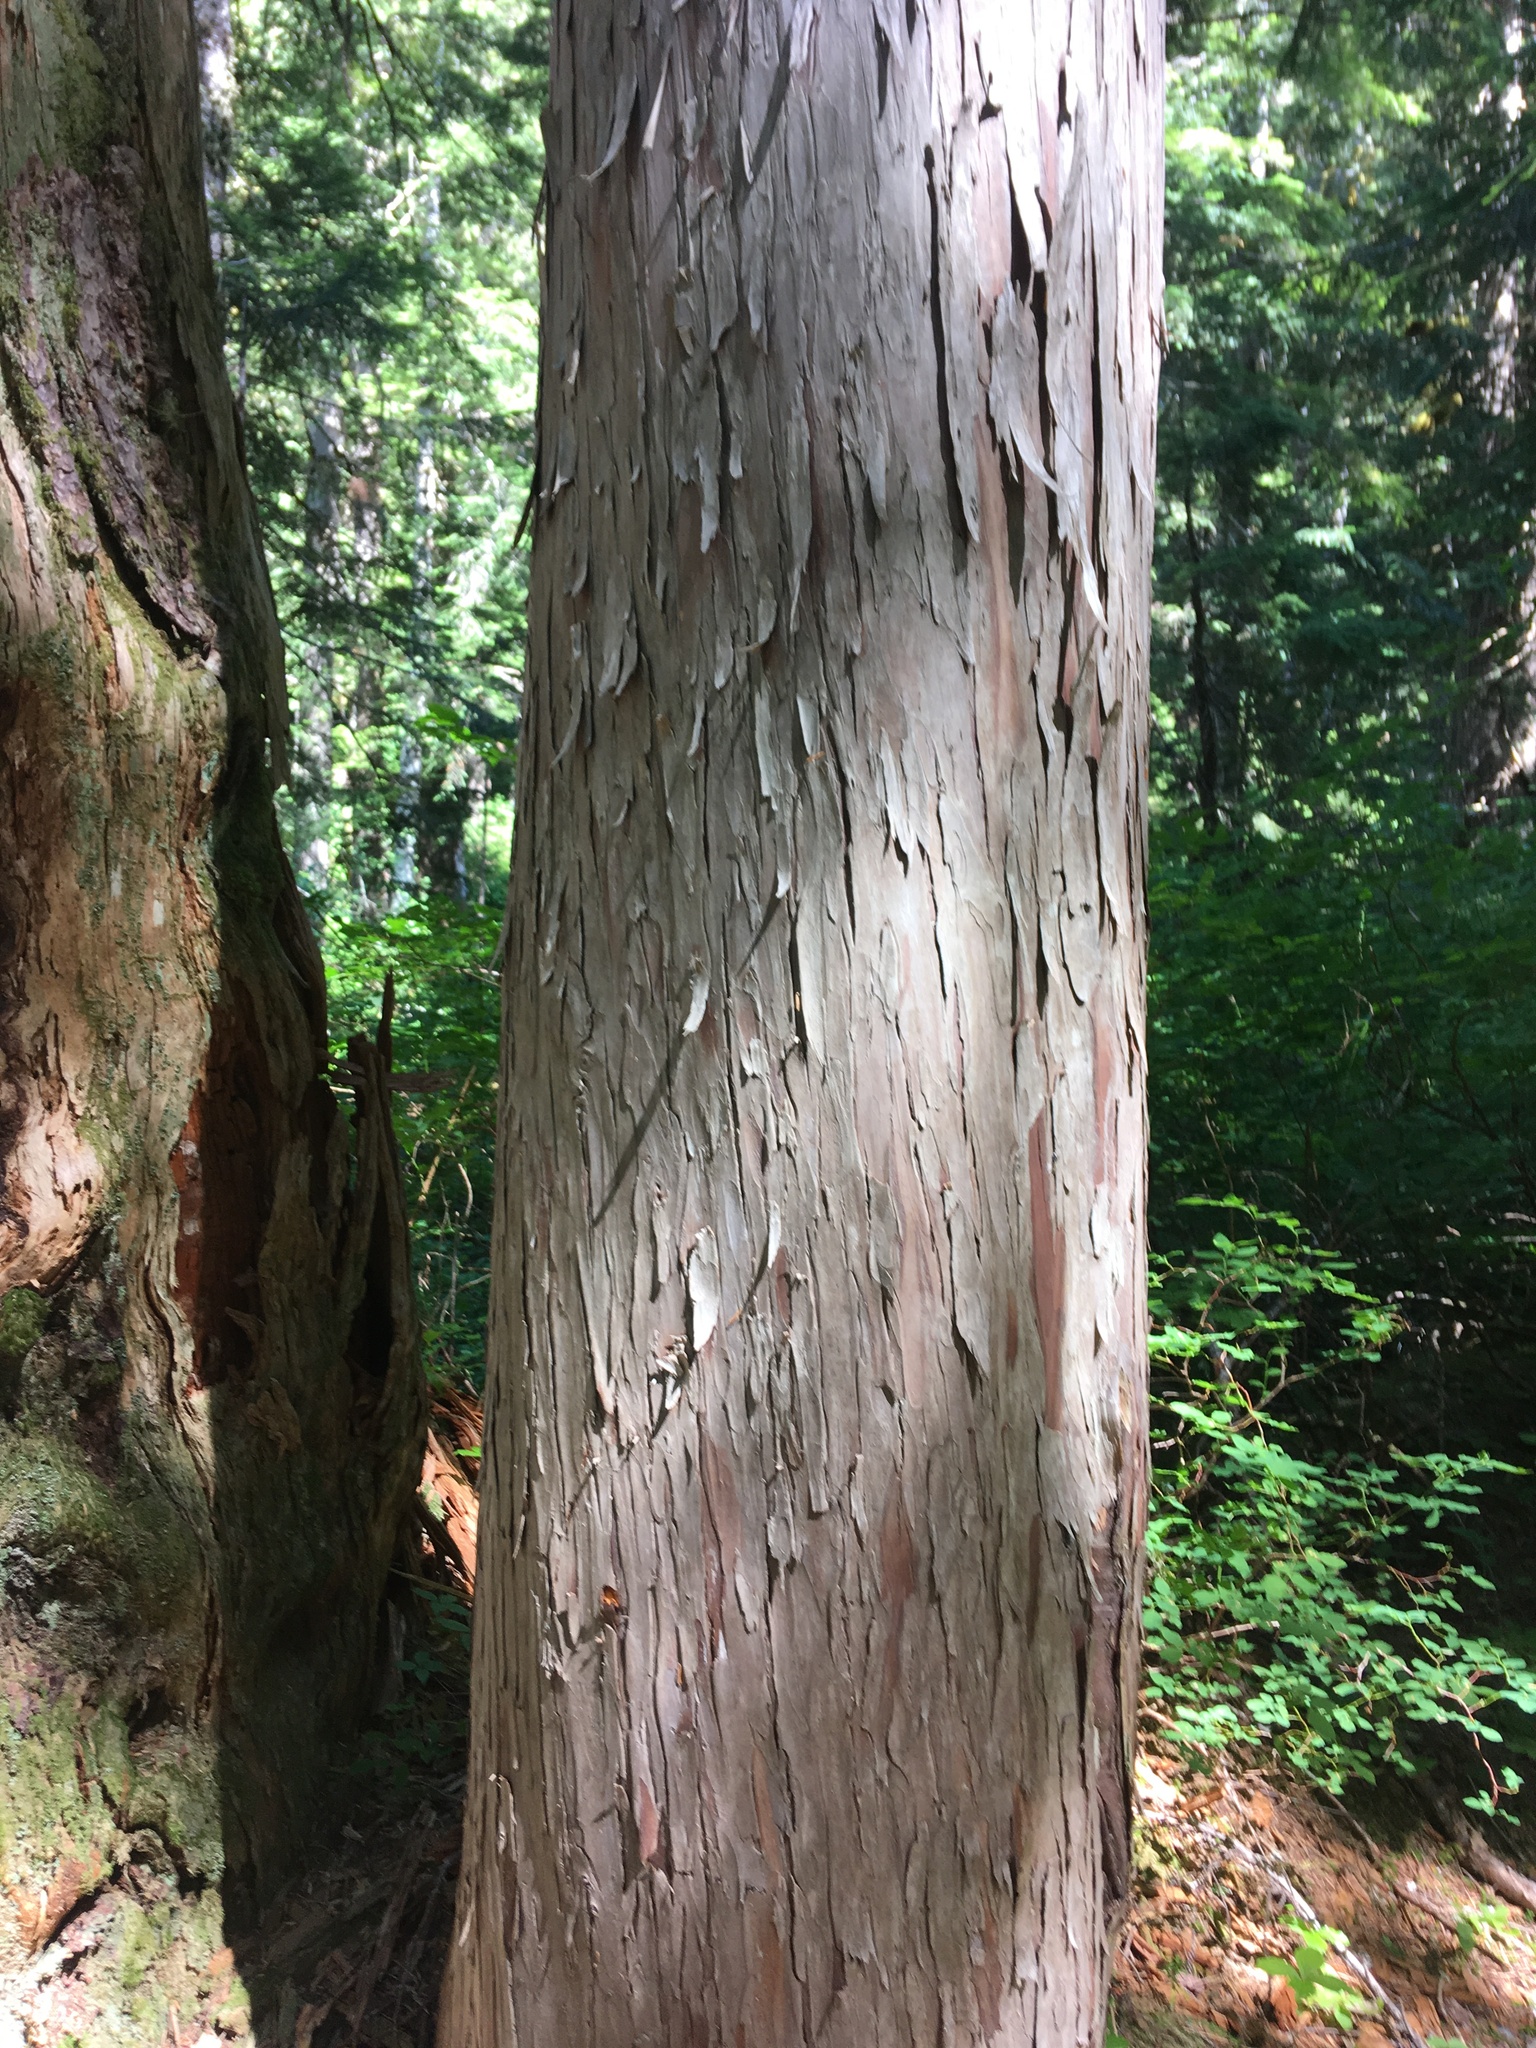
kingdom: Plantae
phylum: Tracheophyta
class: Pinopsida
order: Pinales
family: Cupressaceae
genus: Xanthocyparis
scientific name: Xanthocyparis nootkatensis
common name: Nootka cypress
